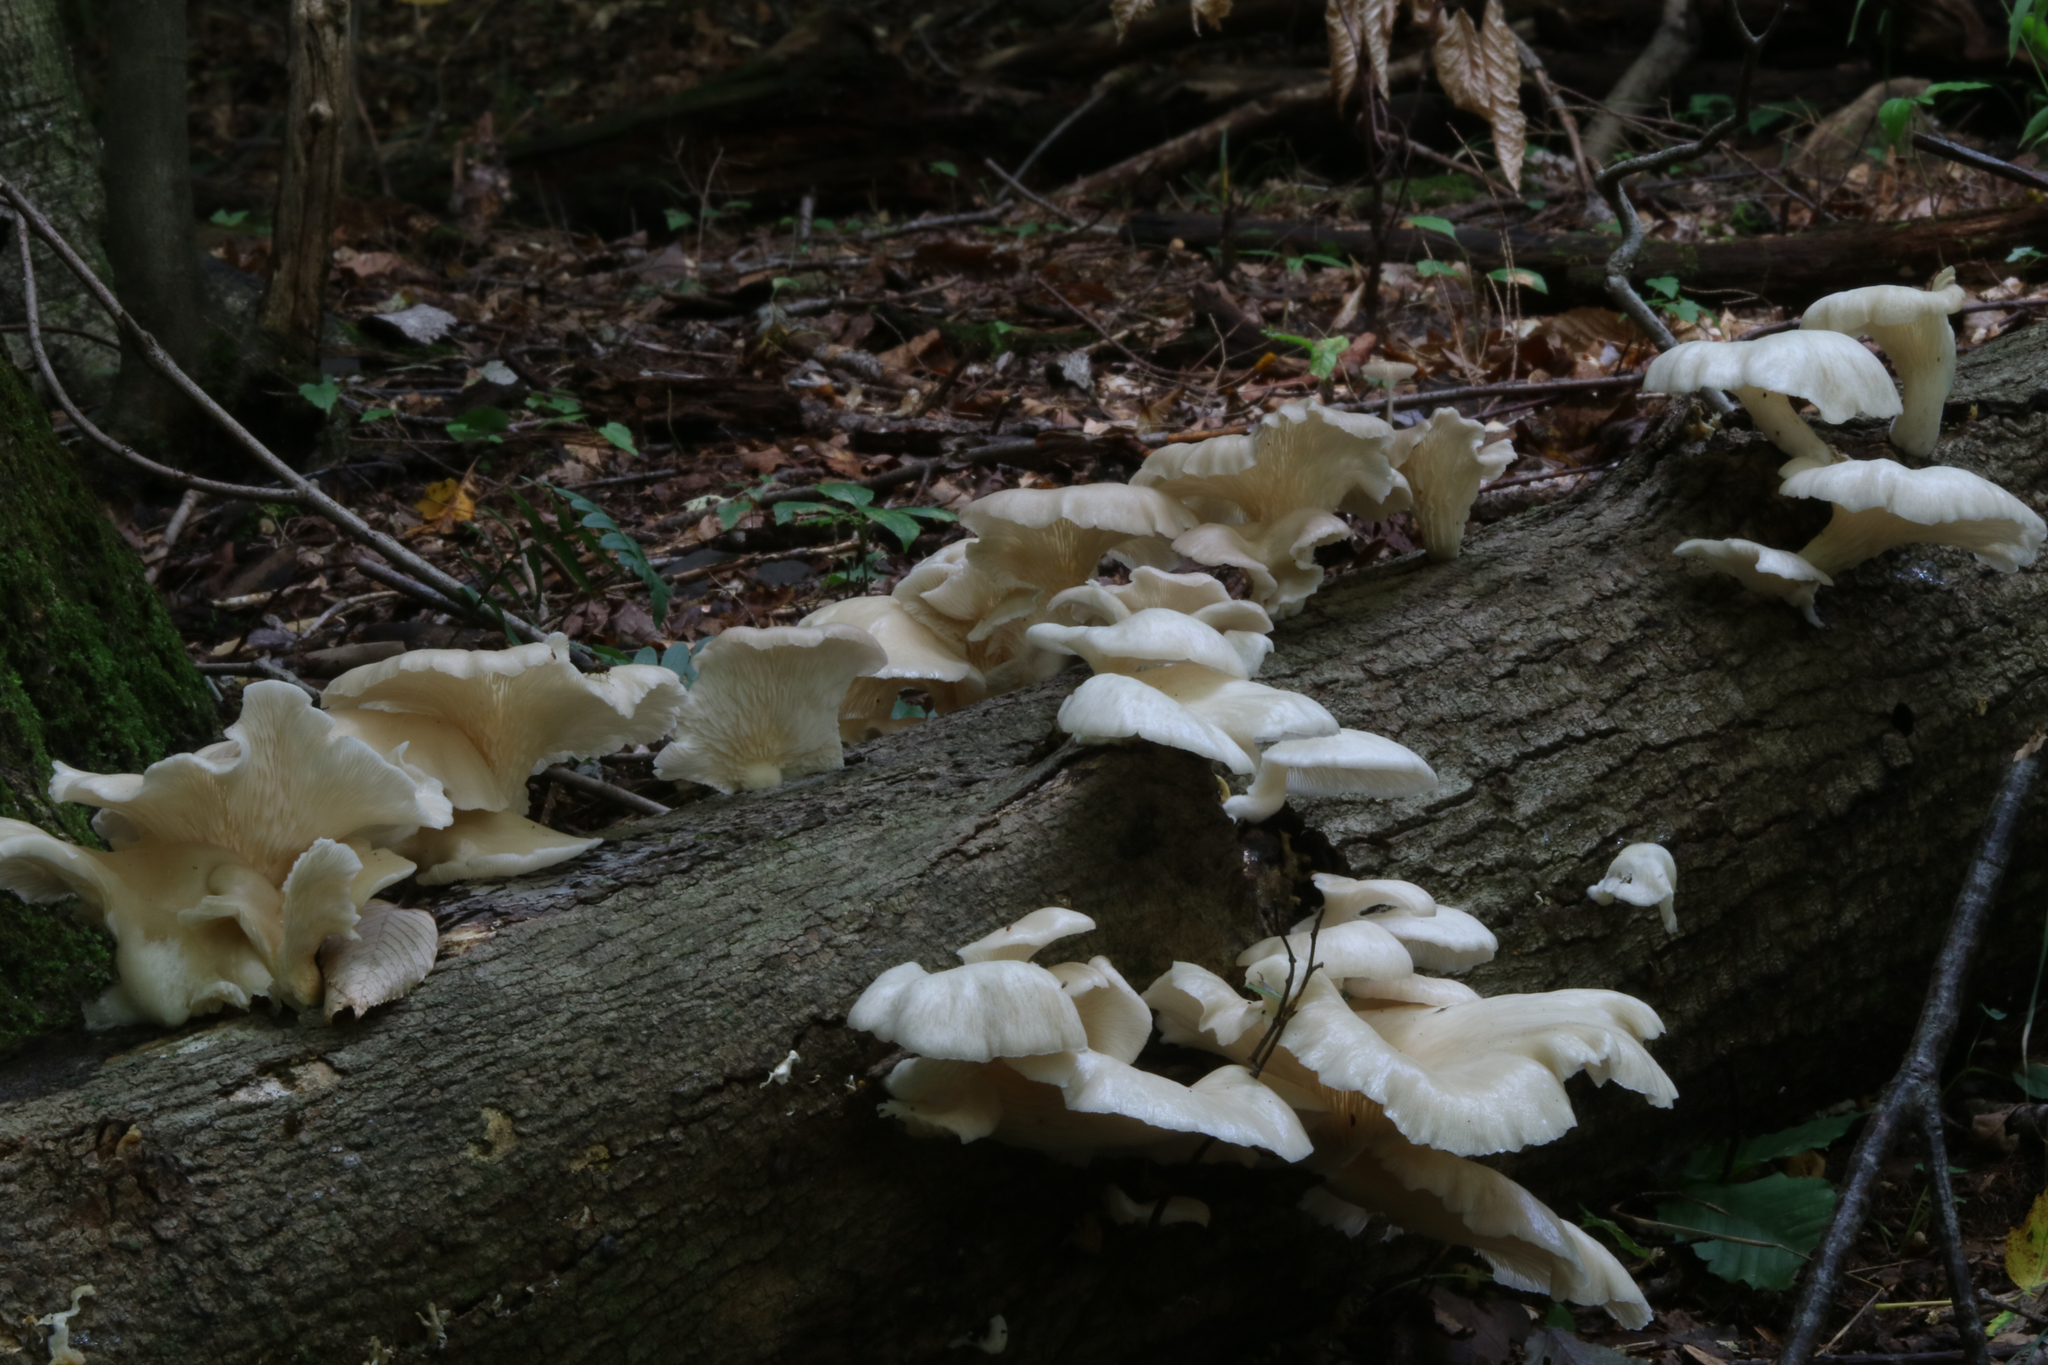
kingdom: Fungi
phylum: Basidiomycota
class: Agaricomycetes
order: Agaricales
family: Pleurotaceae
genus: Pleurotus
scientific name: Pleurotus pulmonarius
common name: Pale oyster
